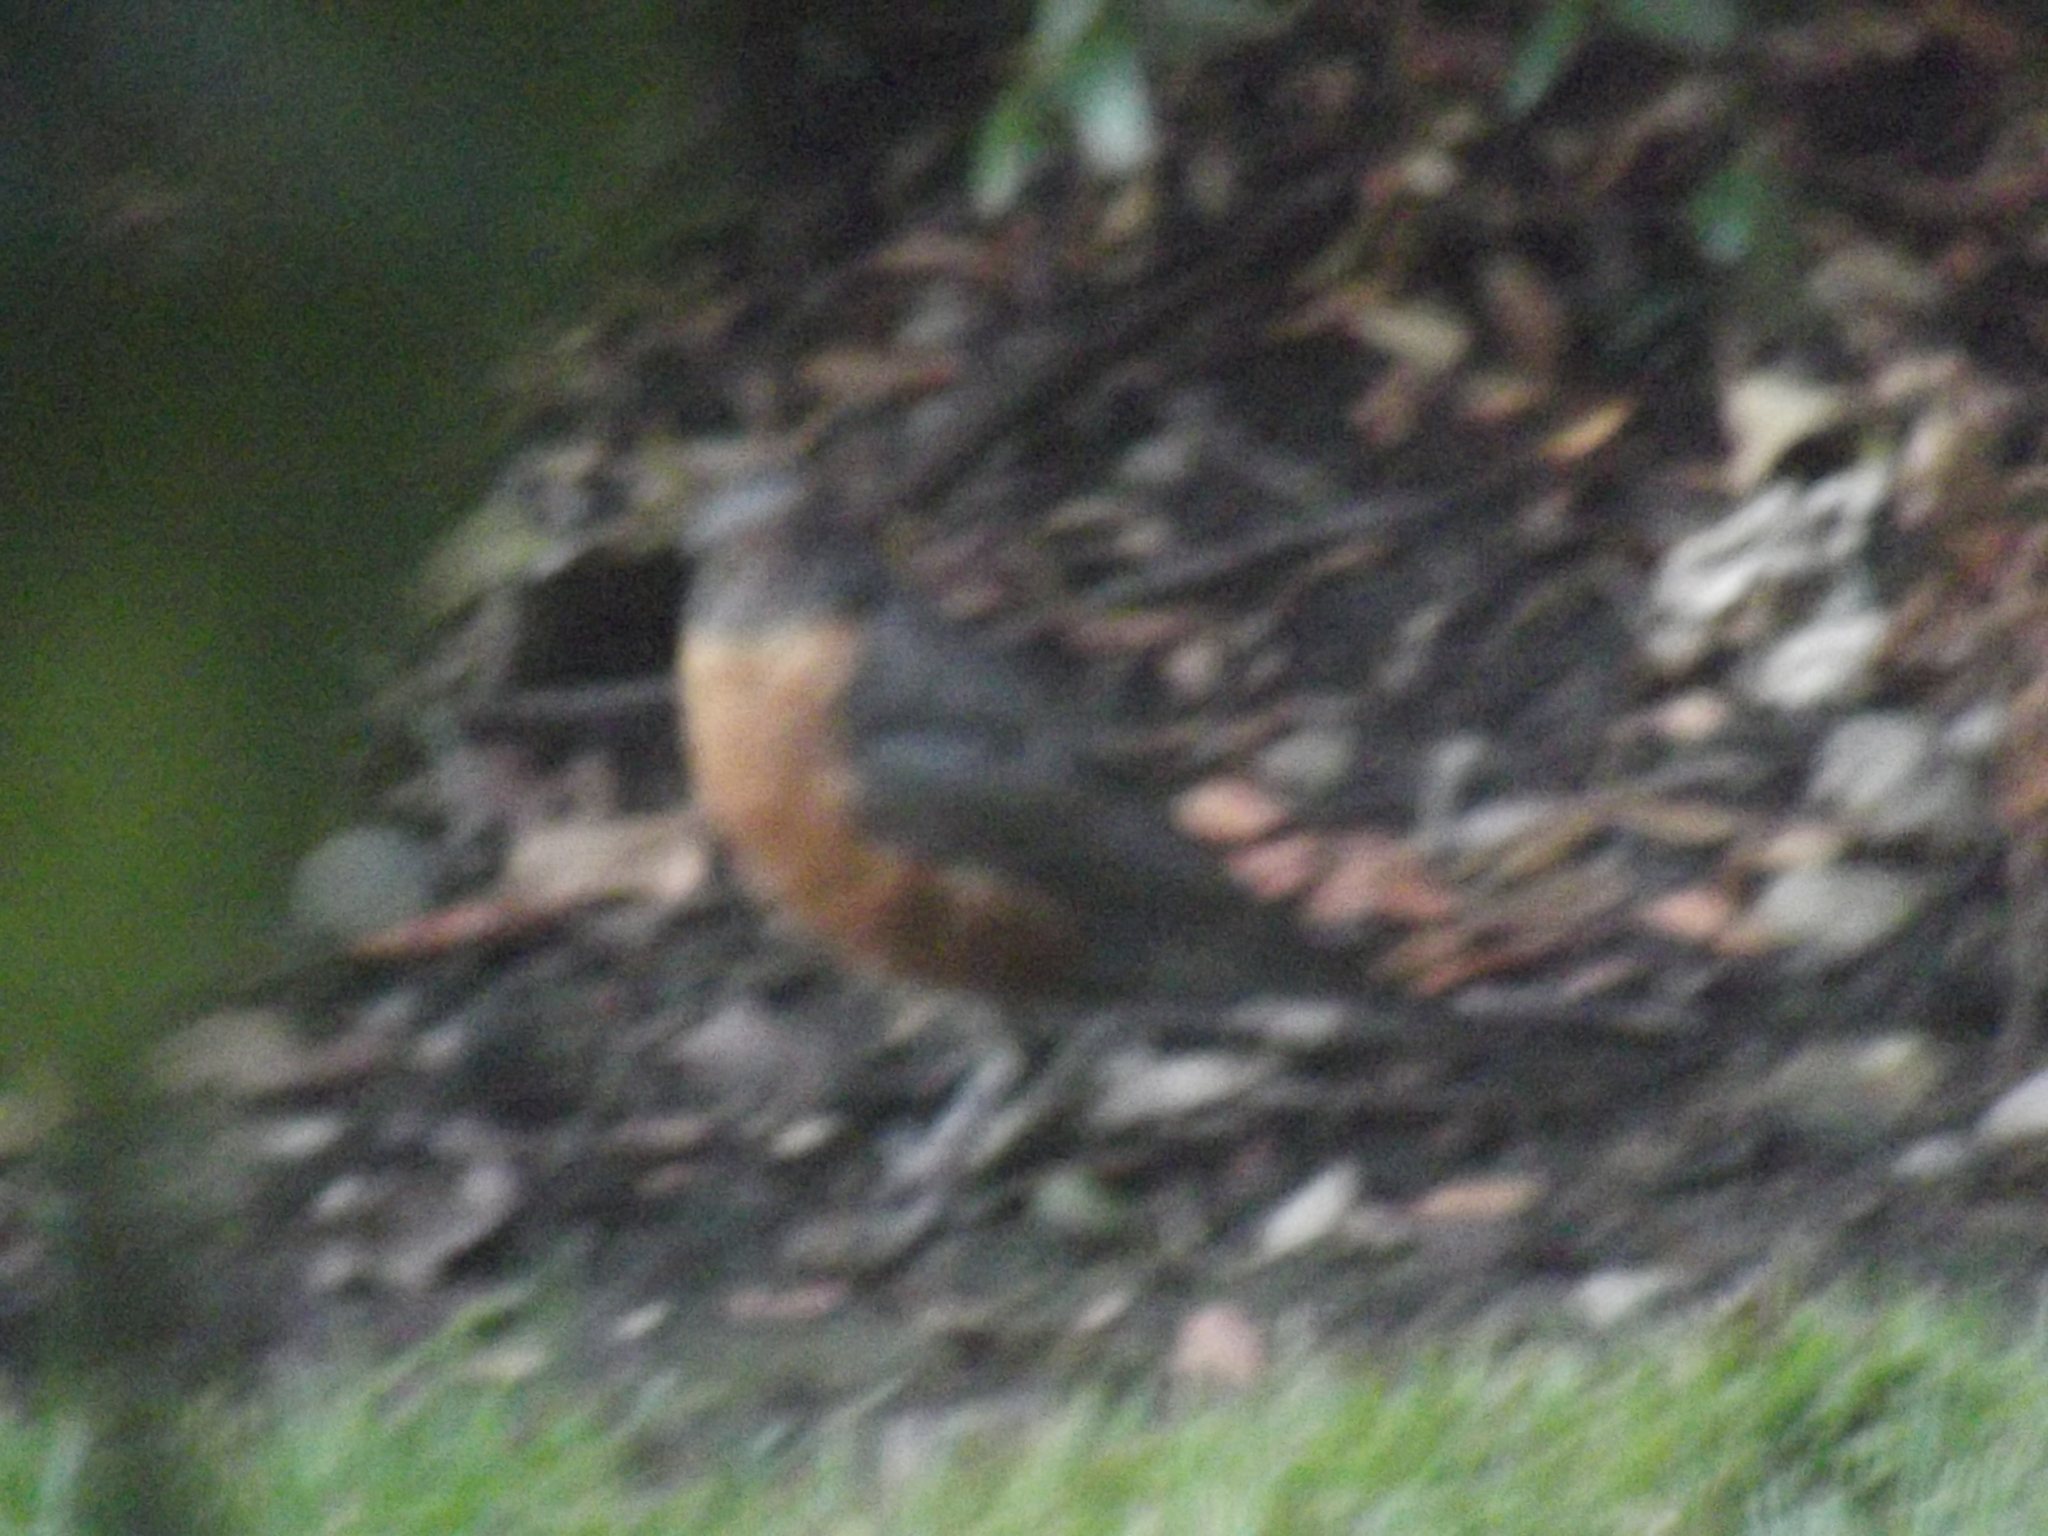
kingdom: Animalia
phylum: Chordata
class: Aves
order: Passeriformes
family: Turdidae
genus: Turdus
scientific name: Turdus migratorius
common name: American robin
